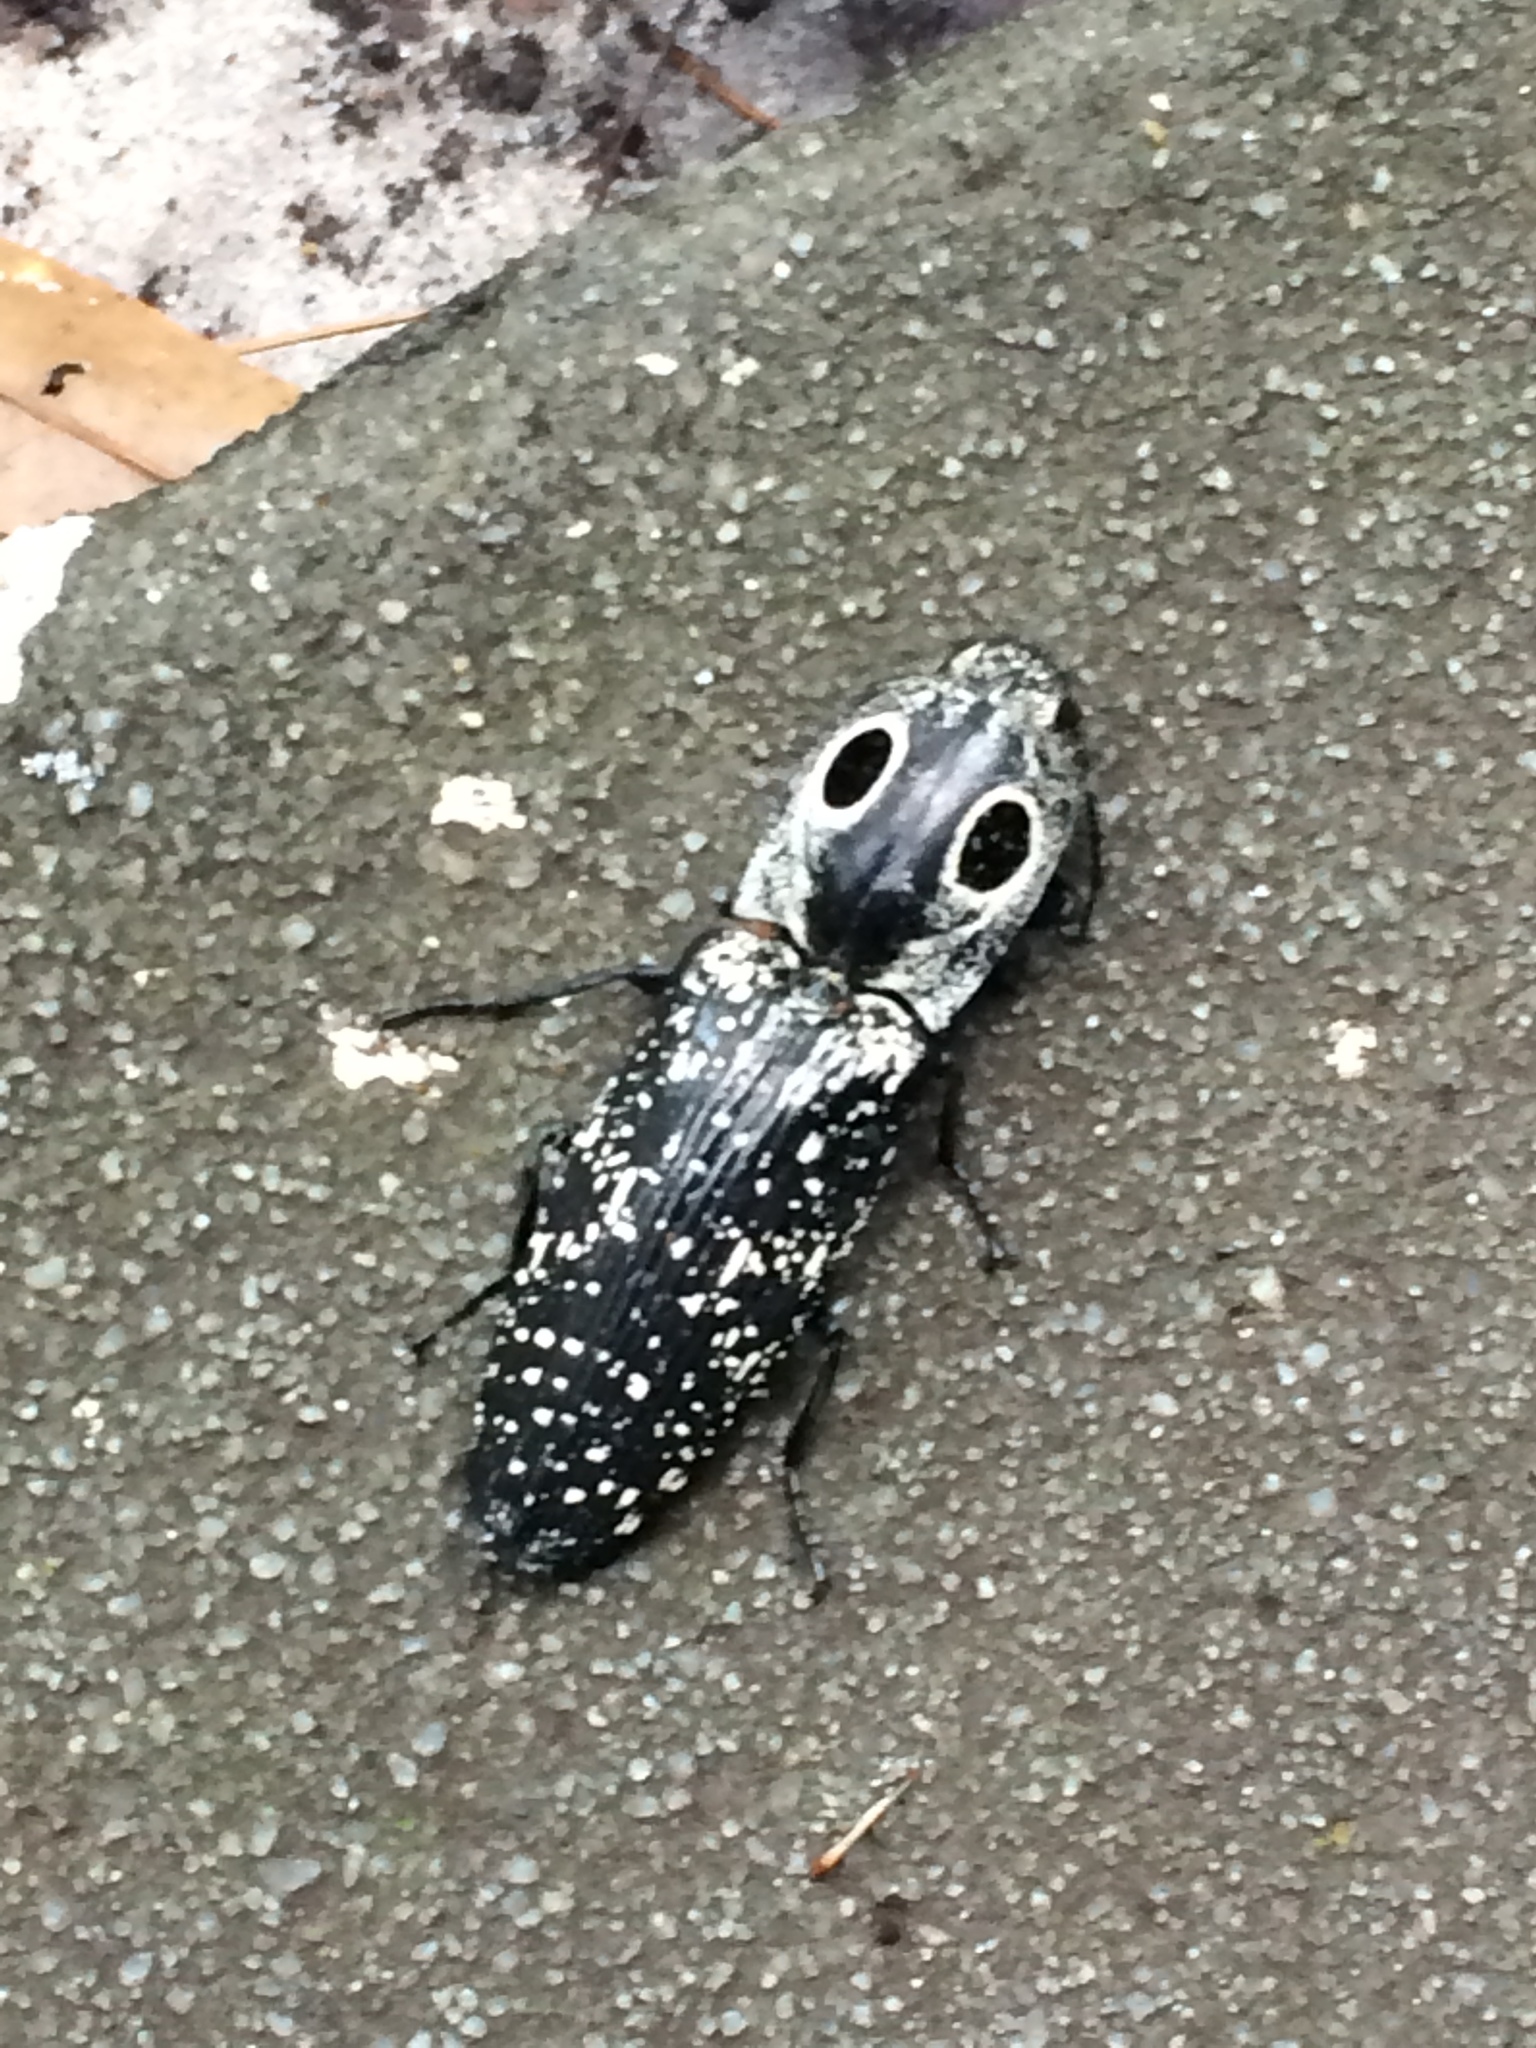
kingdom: Animalia
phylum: Arthropoda
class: Insecta
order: Coleoptera
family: Elateridae
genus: Alaus
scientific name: Alaus oculatus
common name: Eastern eyed click beetle
